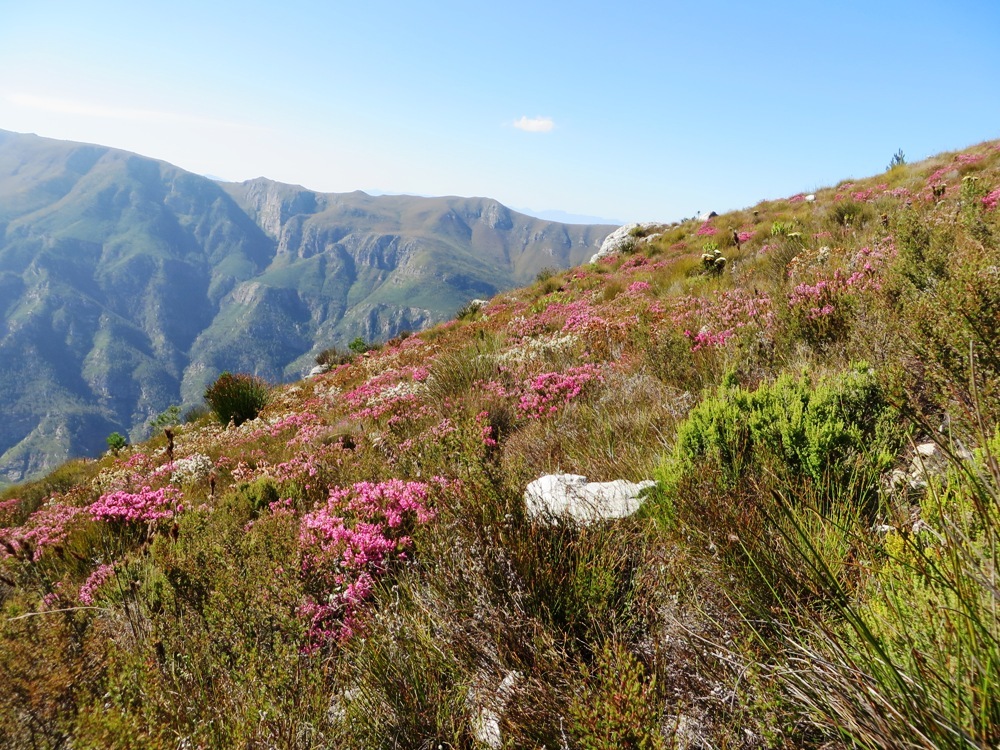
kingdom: Plantae
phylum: Tracheophyta
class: Magnoliopsida
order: Ericales
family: Ericaceae
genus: Erica
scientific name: Erica insolitanthera
